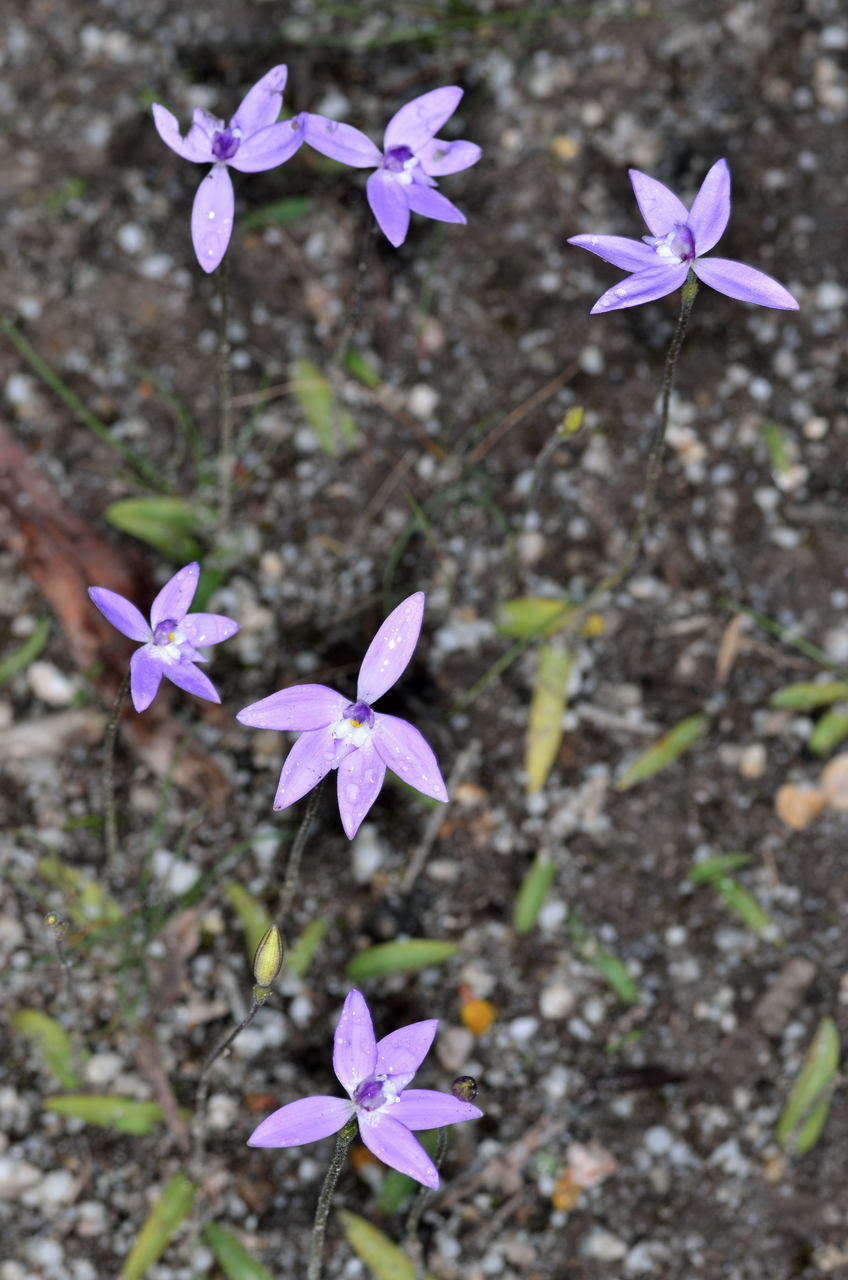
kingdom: Plantae
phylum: Tracheophyta
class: Liliopsida
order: Asparagales
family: Orchidaceae
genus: Caladenia
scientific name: Caladenia major
